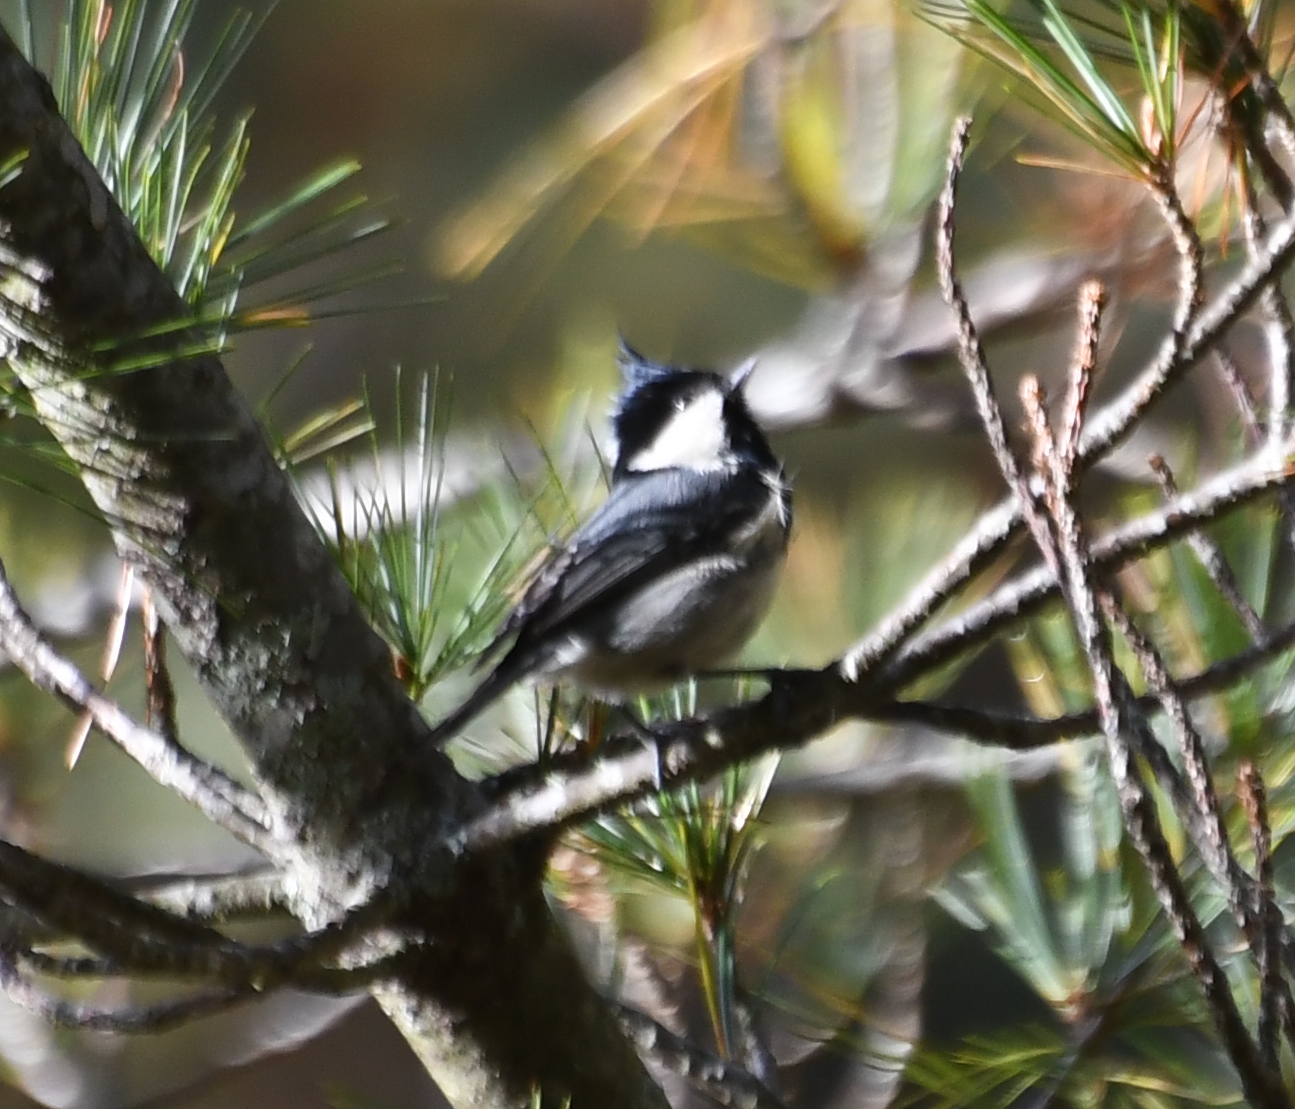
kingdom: Animalia
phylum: Chordata
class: Aves
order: Passeriformes
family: Paridae
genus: Periparus
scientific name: Periparus ater
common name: Coal tit
